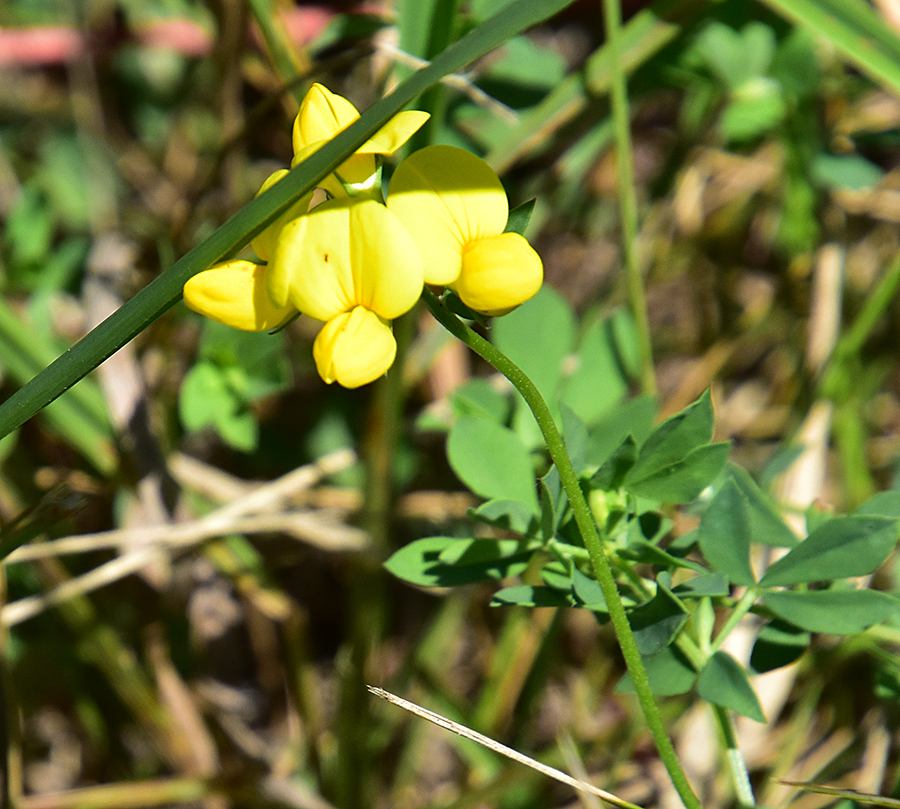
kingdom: Plantae
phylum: Tracheophyta
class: Magnoliopsida
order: Fabales
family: Fabaceae
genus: Lotus
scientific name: Lotus corniculatus
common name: Common bird's-foot-trefoil
